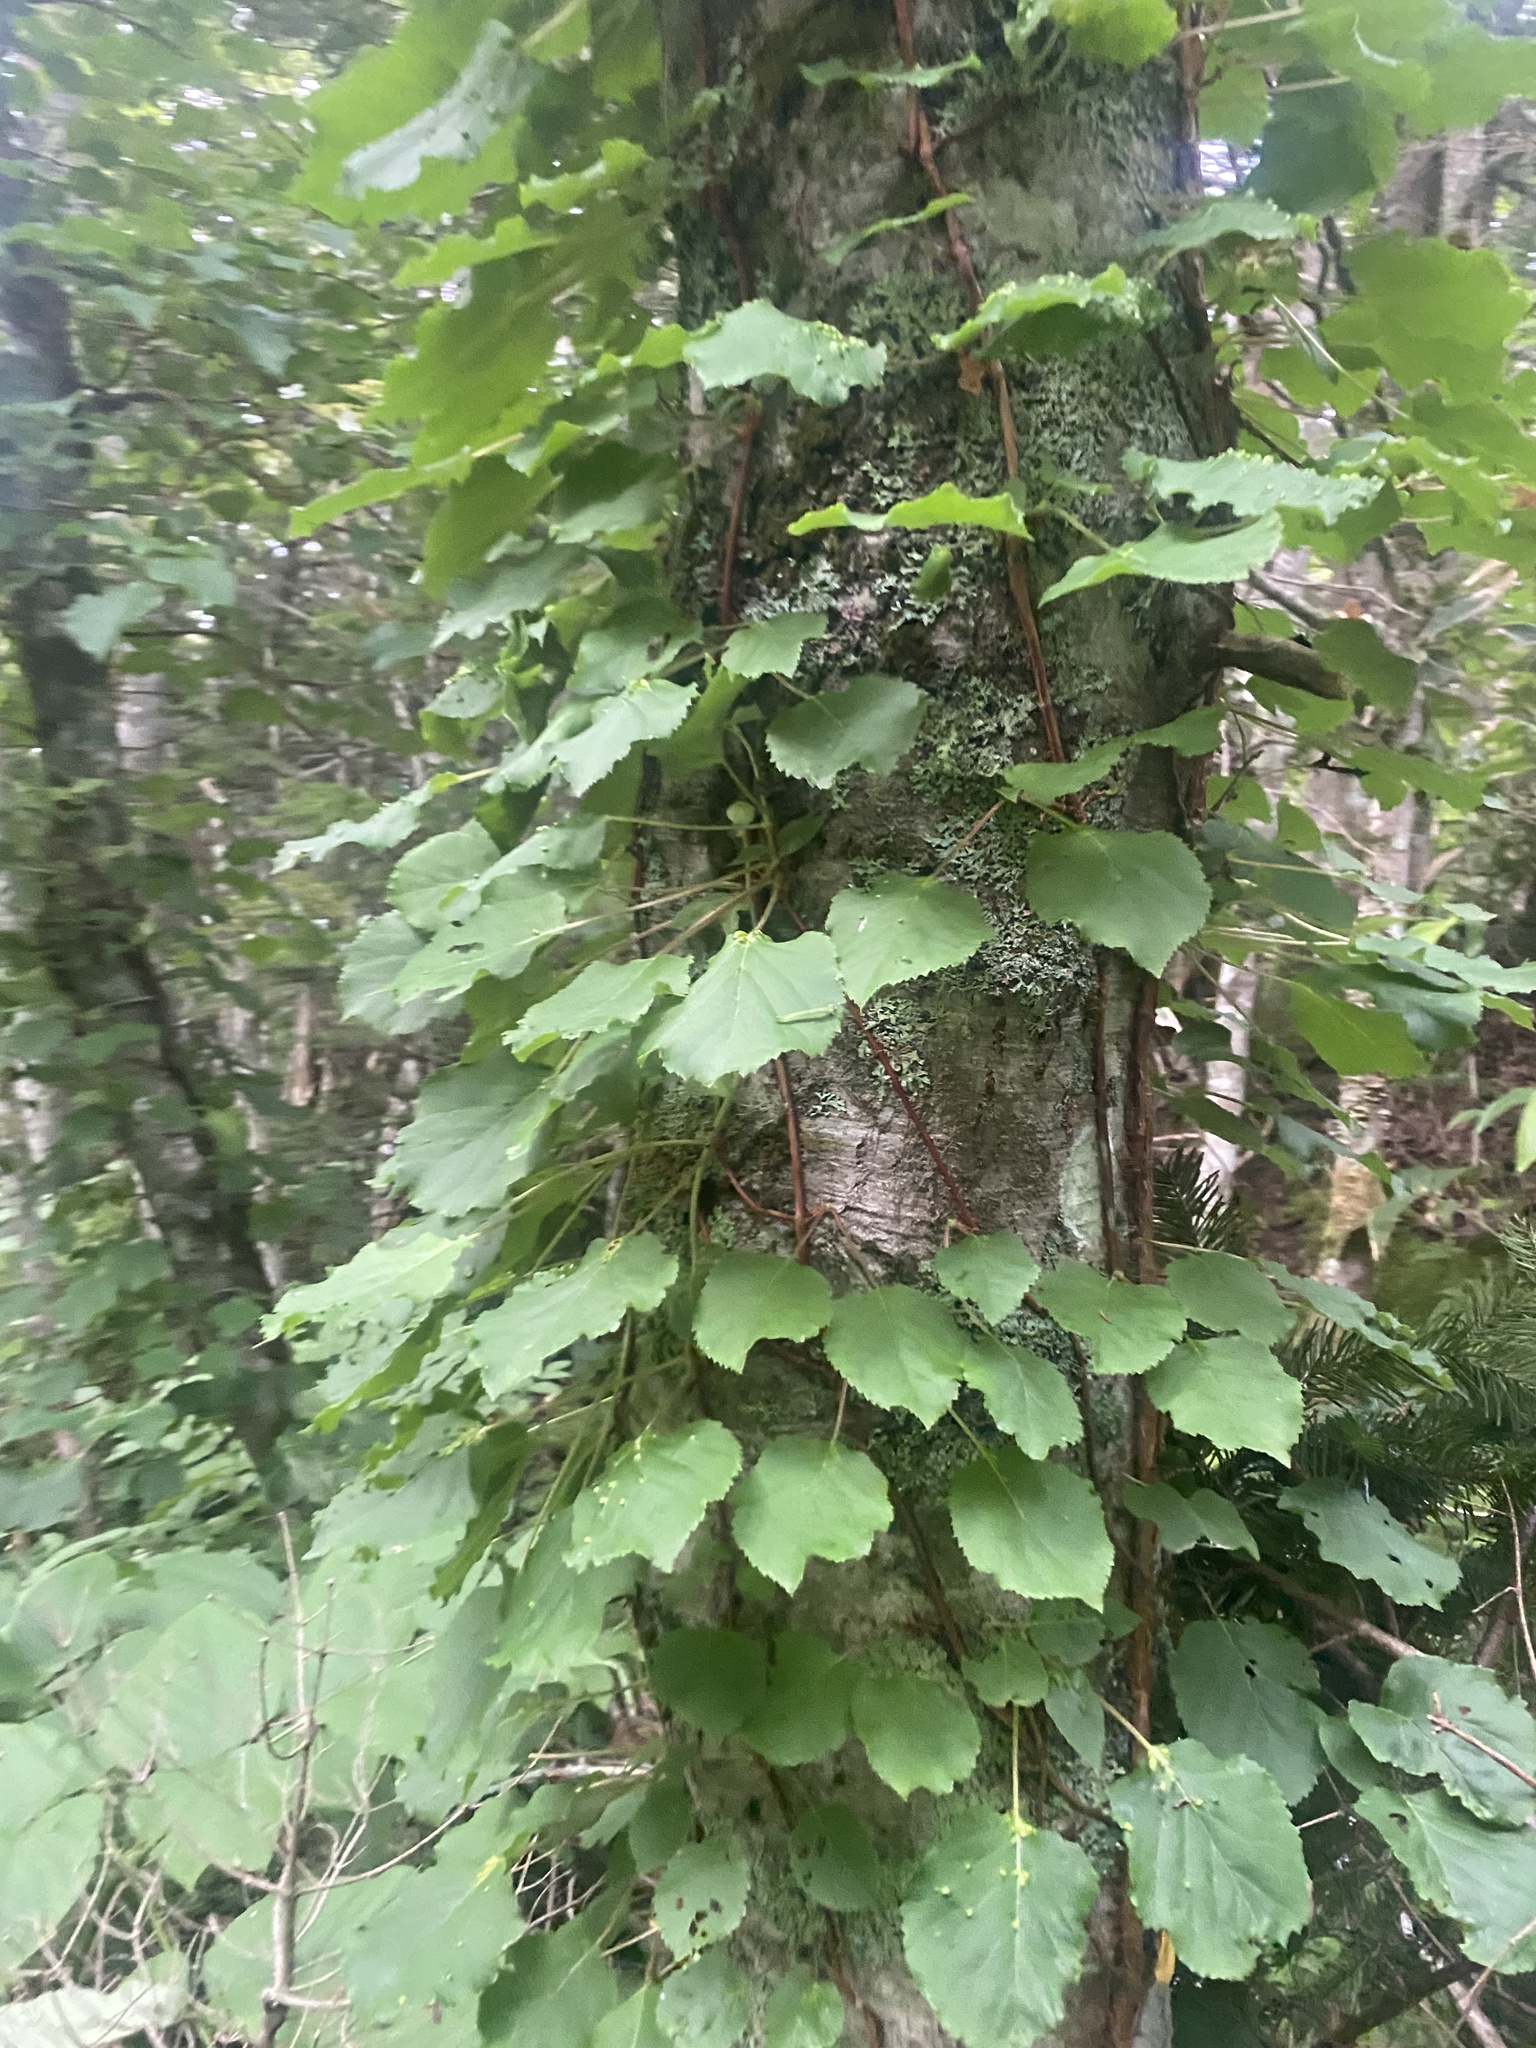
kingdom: Plantae
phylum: Tracheophyta
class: Magnoliopsida
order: Cornales
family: Hydrangeaceae
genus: Hydrangea
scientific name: Hydrangea petiolaris
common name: Japanese climbing hydrangea
